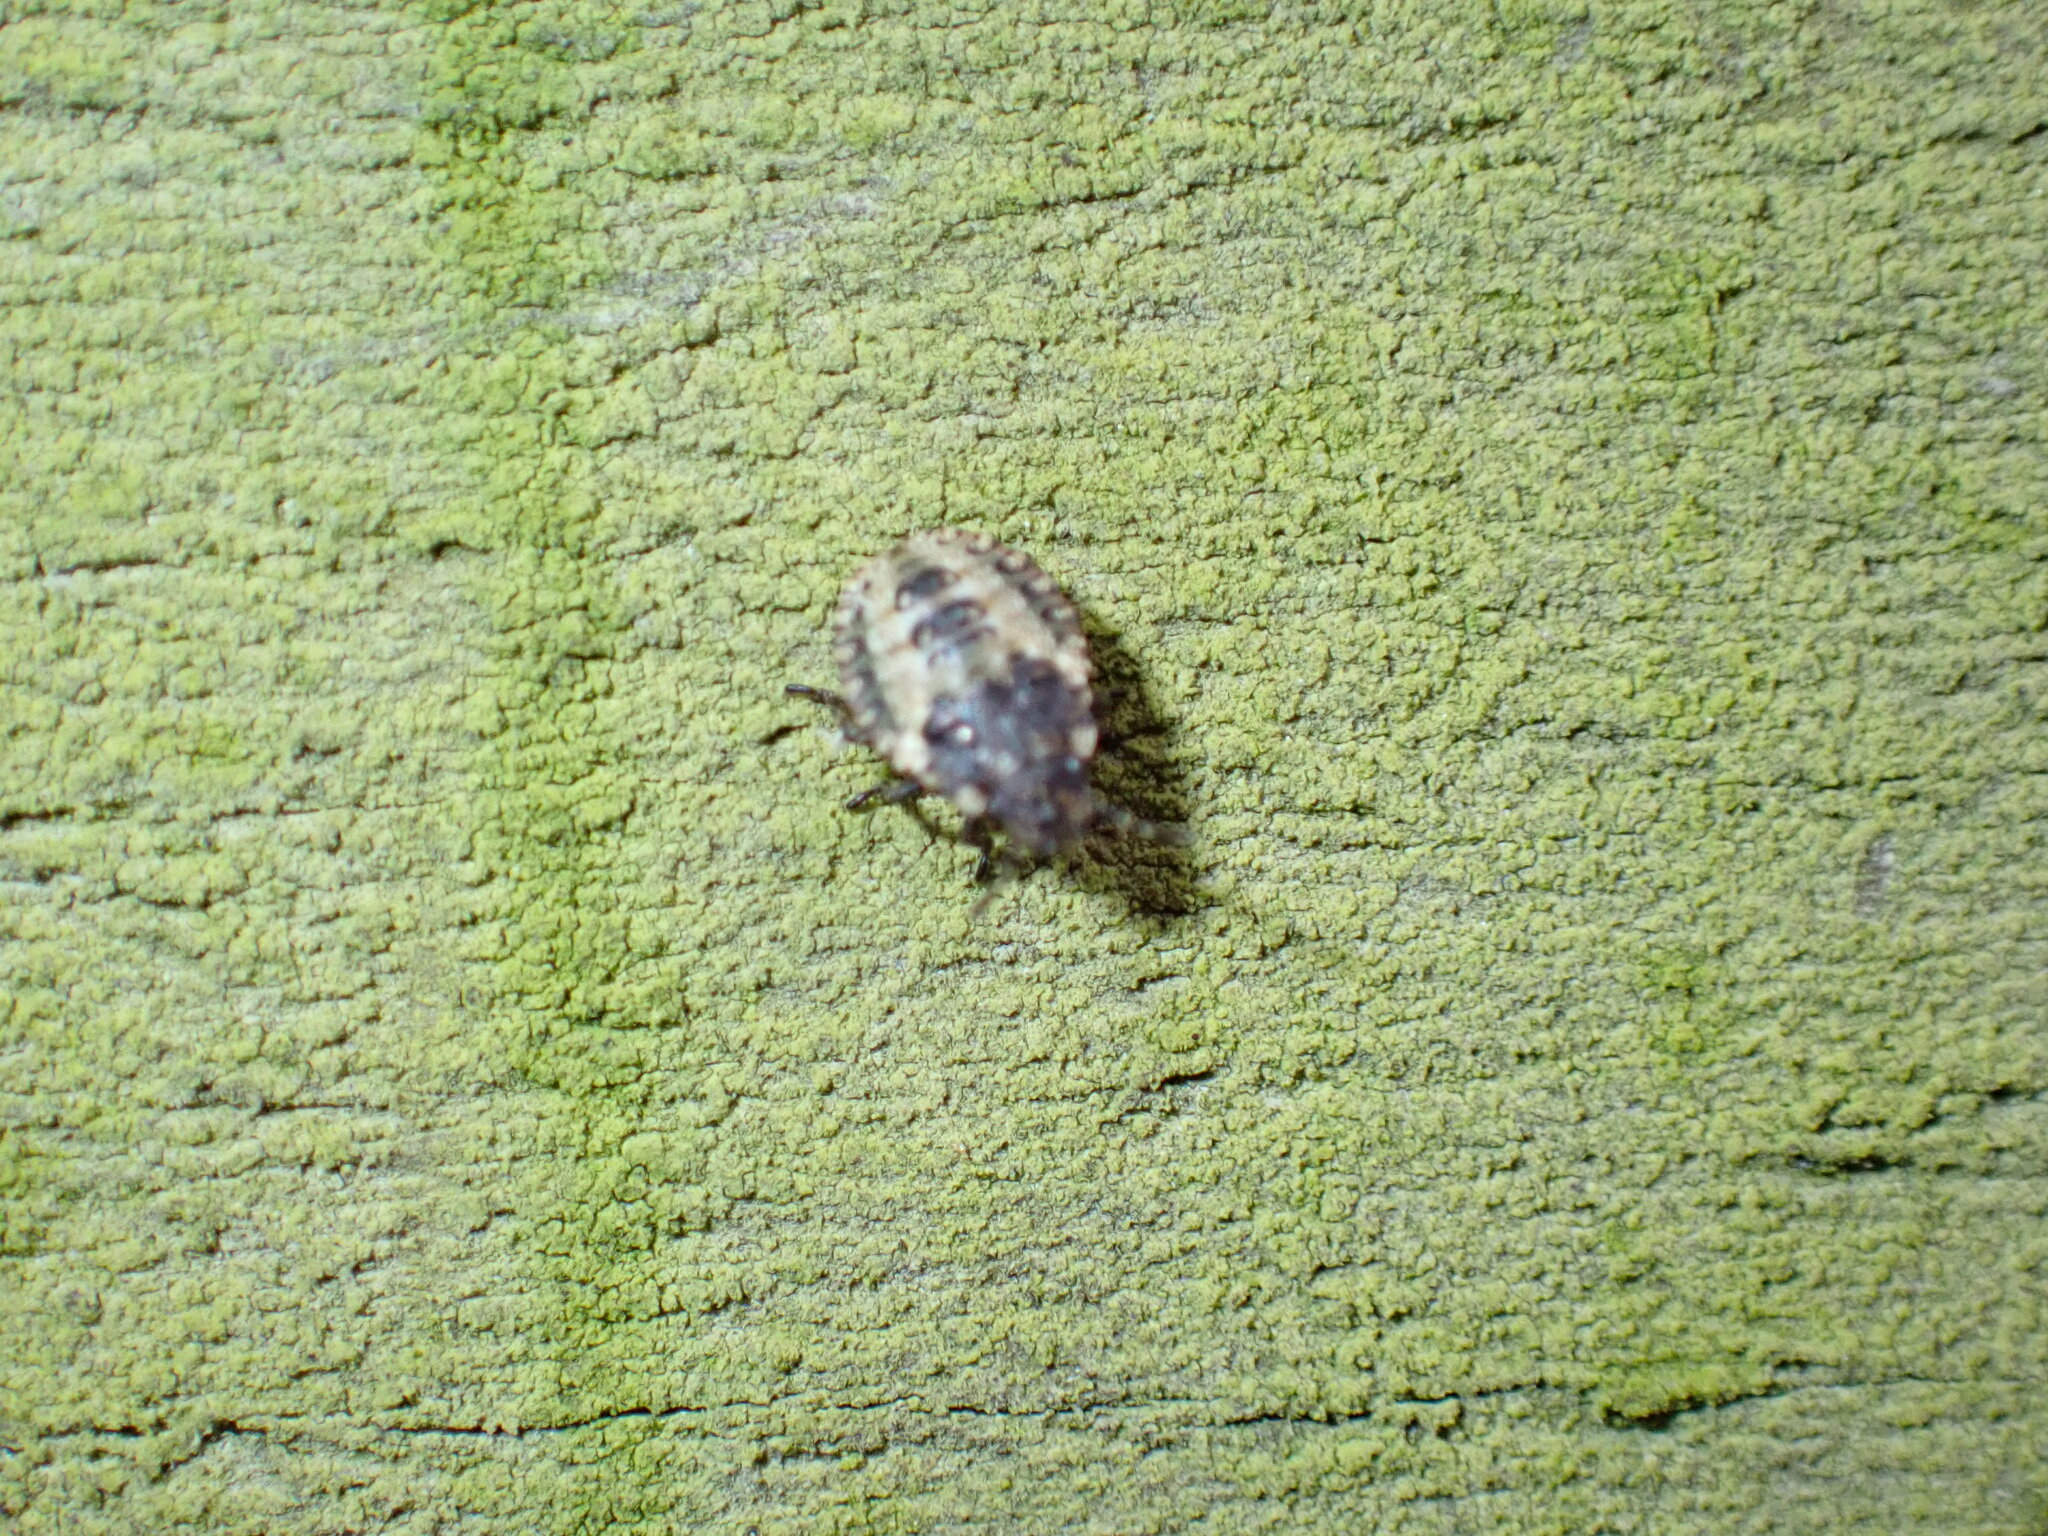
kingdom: Animalia
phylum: Arthropoda
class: Insecta
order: Hemiptera
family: Pentatomidae
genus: Pentatoma
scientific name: Pentatoma rufipes
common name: Forest bug
